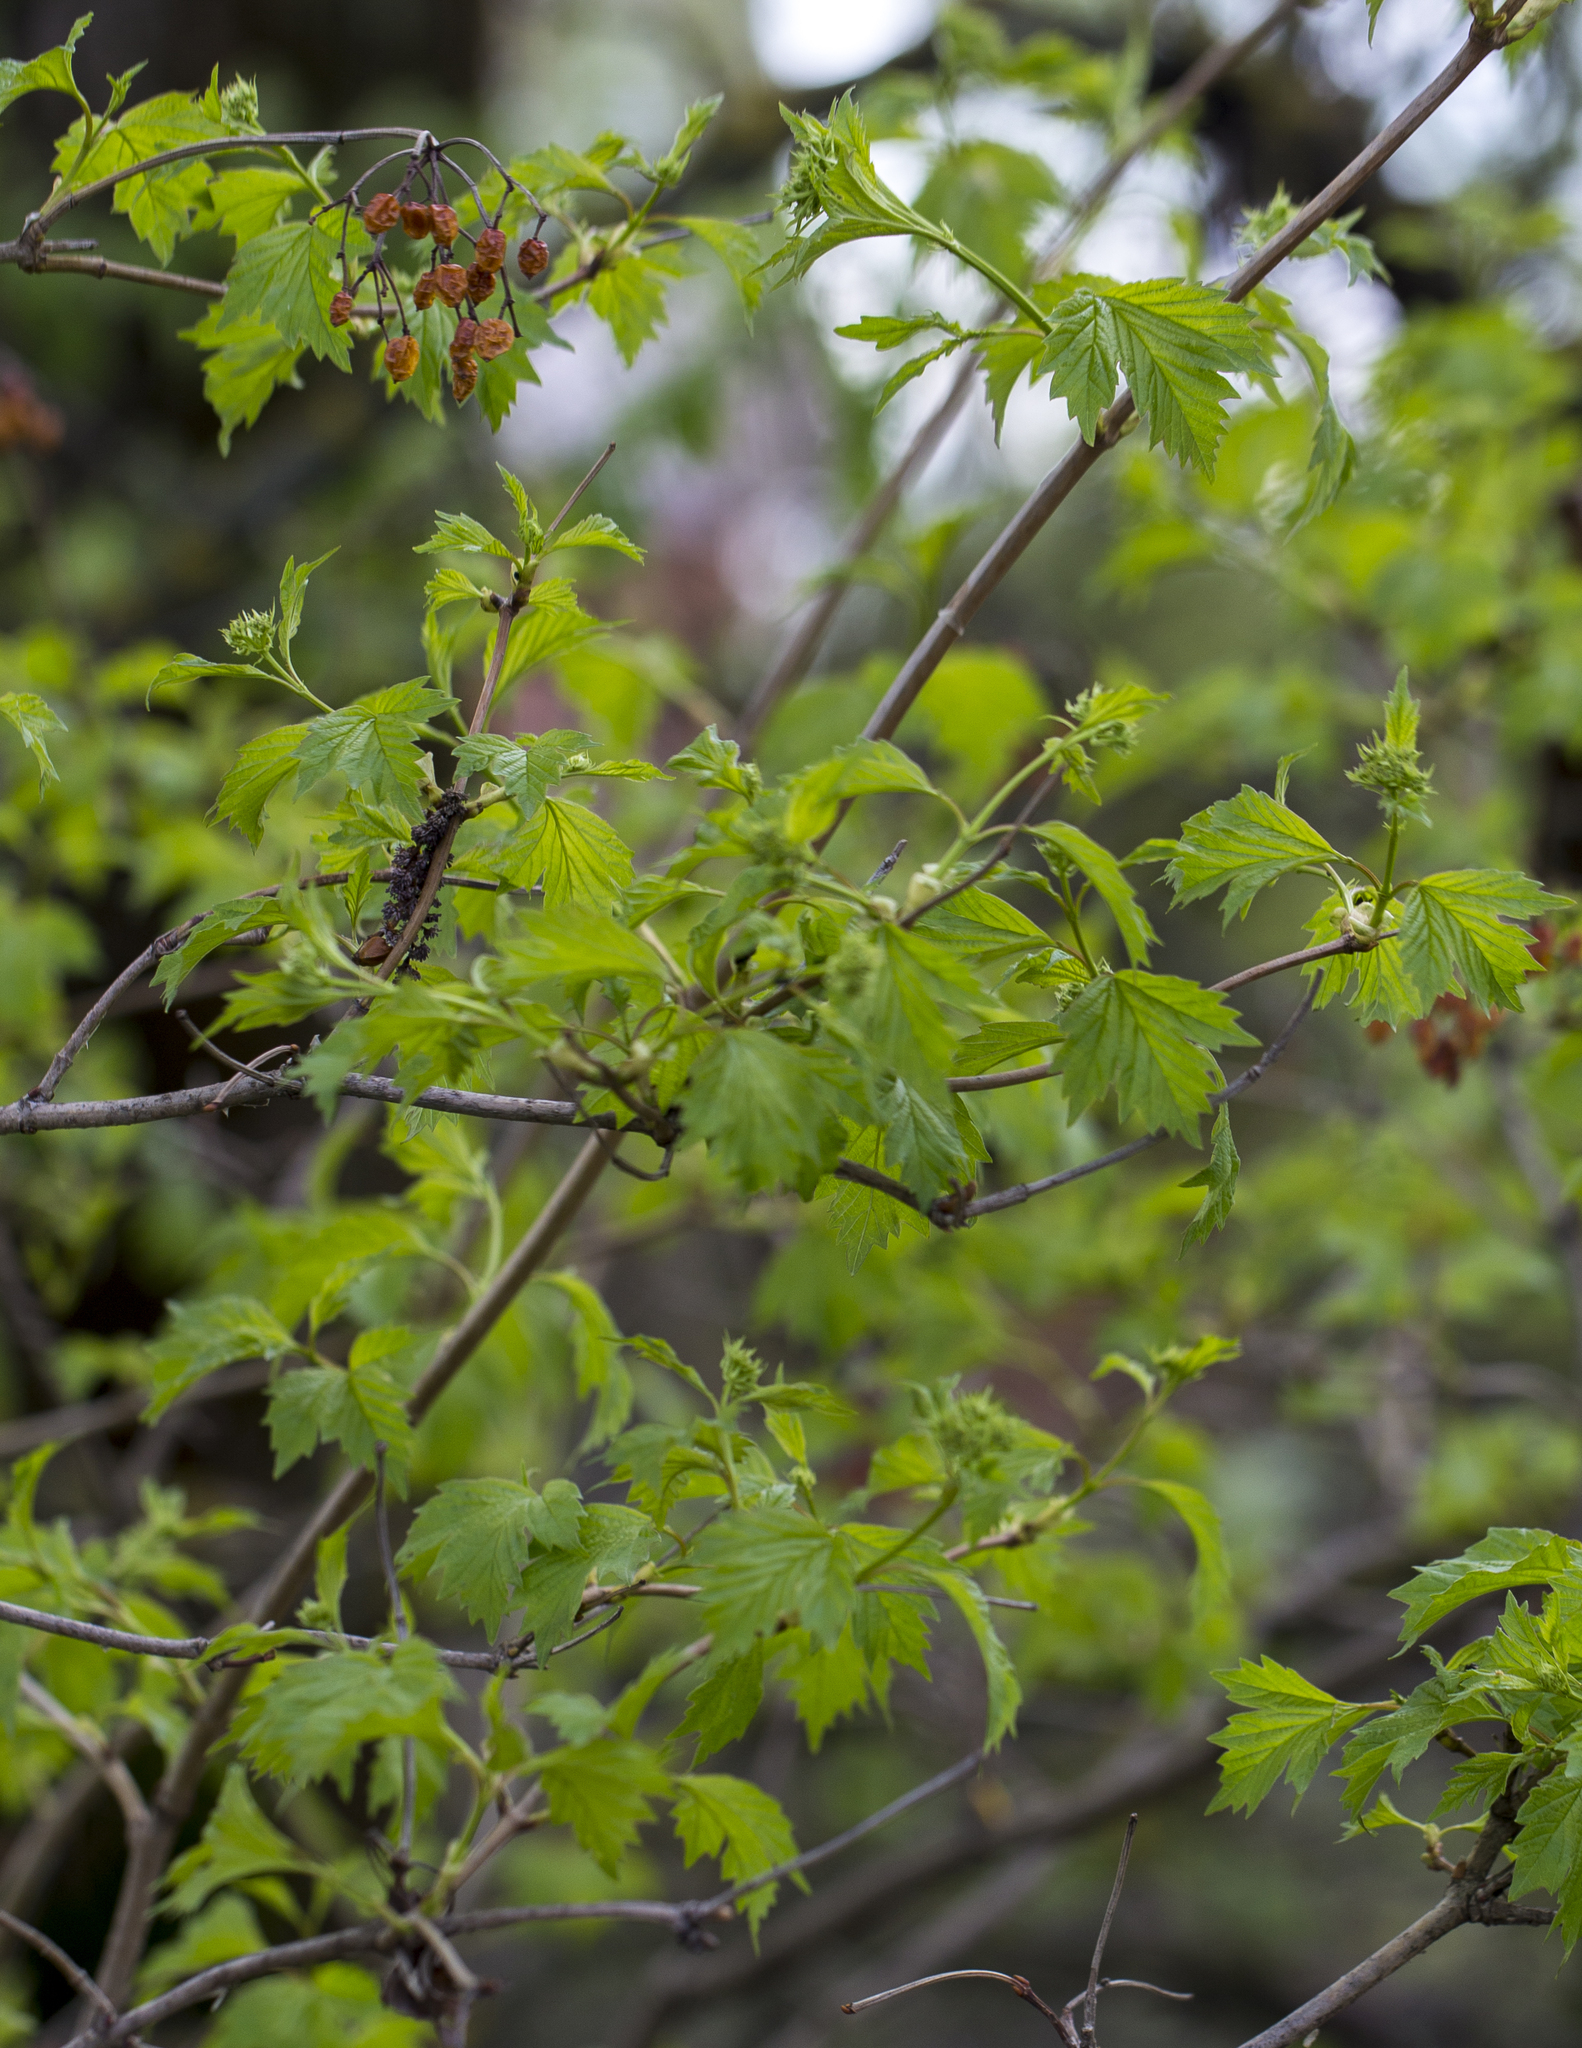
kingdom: Plantae
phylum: Tracheophyta
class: Magnoliopsida
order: Dipsacales
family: Viburnaceae
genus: Viburnum
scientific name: Viburnum opulus
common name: Guelder-rose
